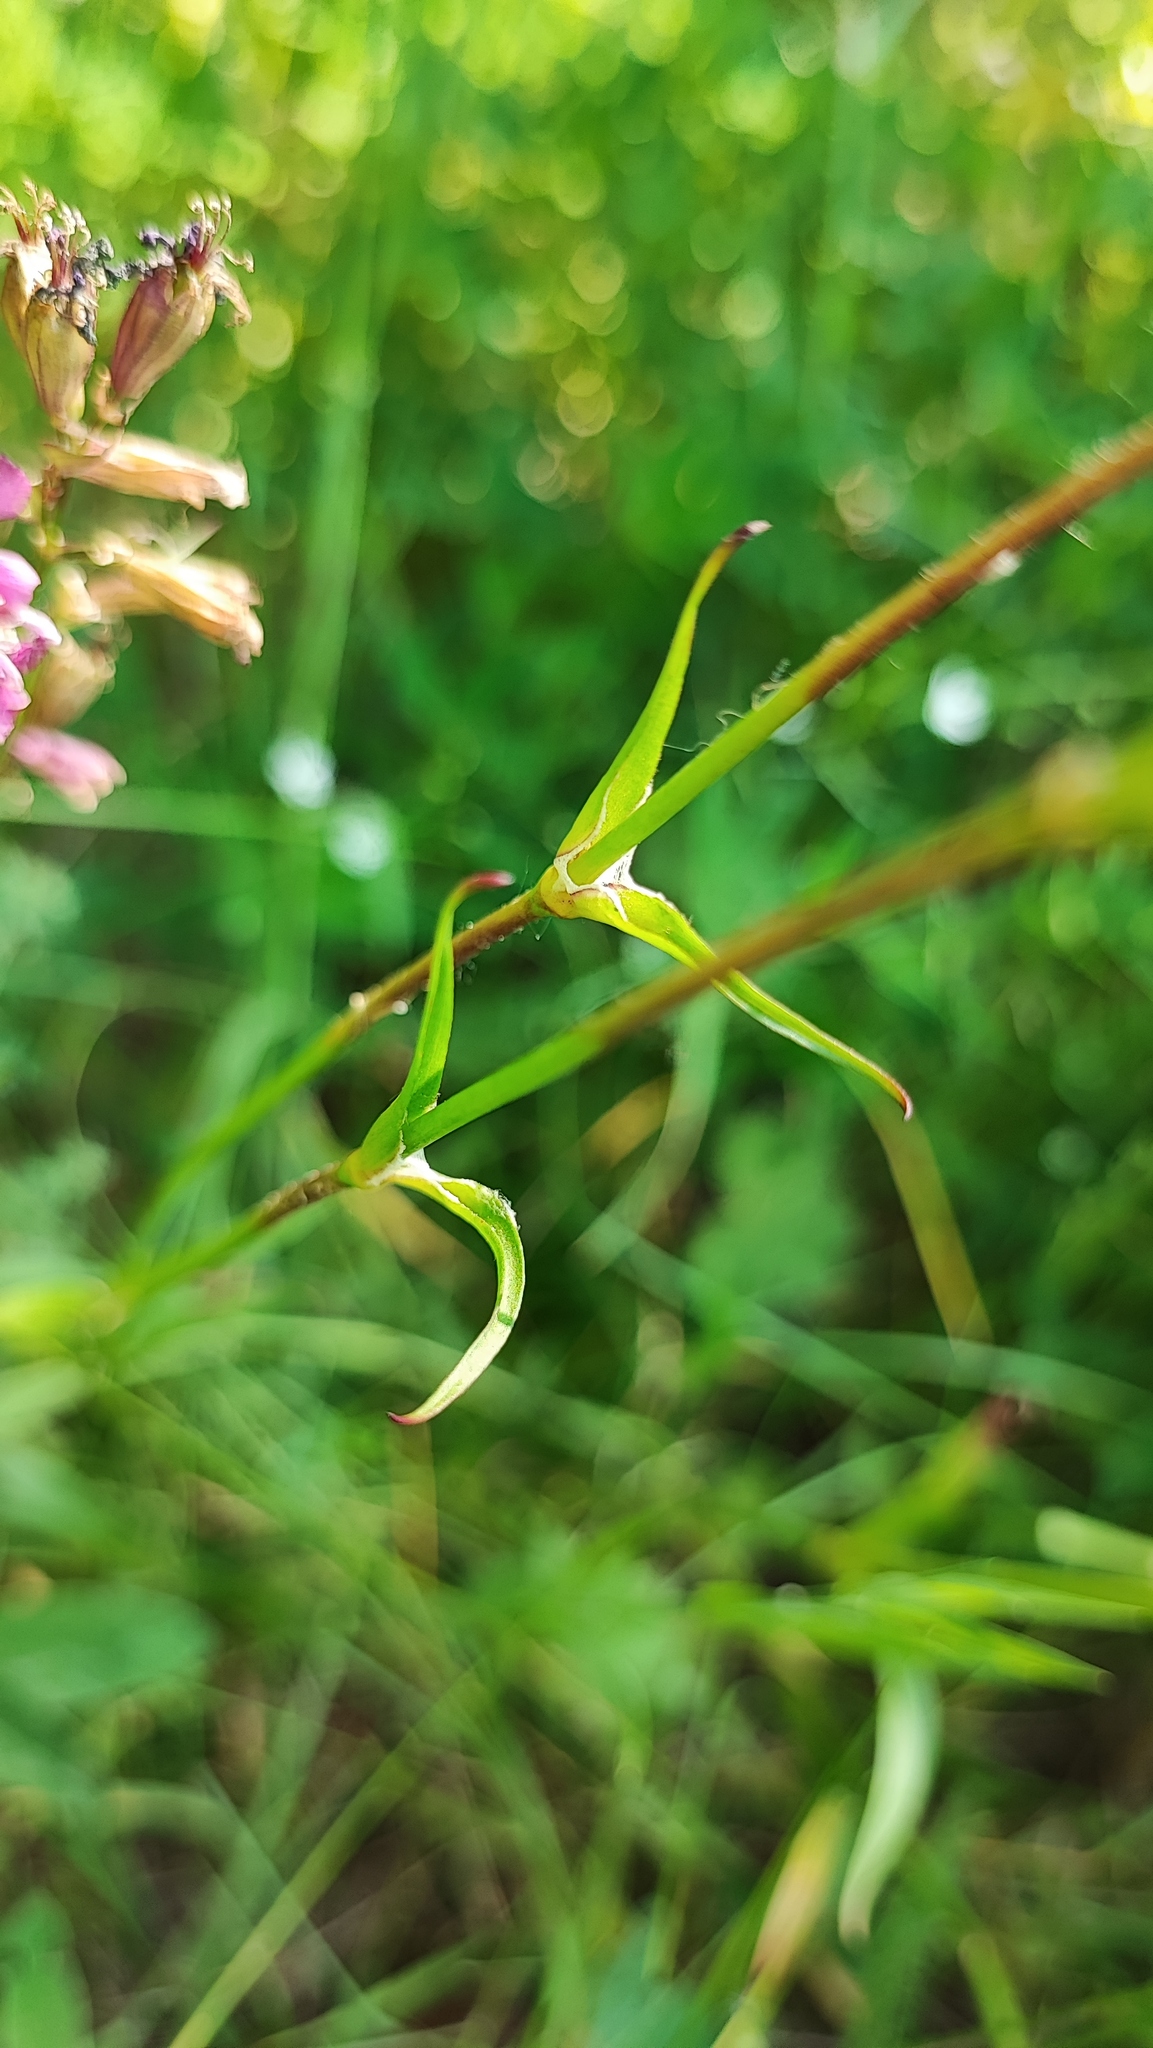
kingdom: Plantae
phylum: Tracheophyta
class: Magnoliopsida
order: Caryophyllales
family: Caryophyllaceae
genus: Viscaria
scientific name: Viscaria vulgaris
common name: Clammy campion
